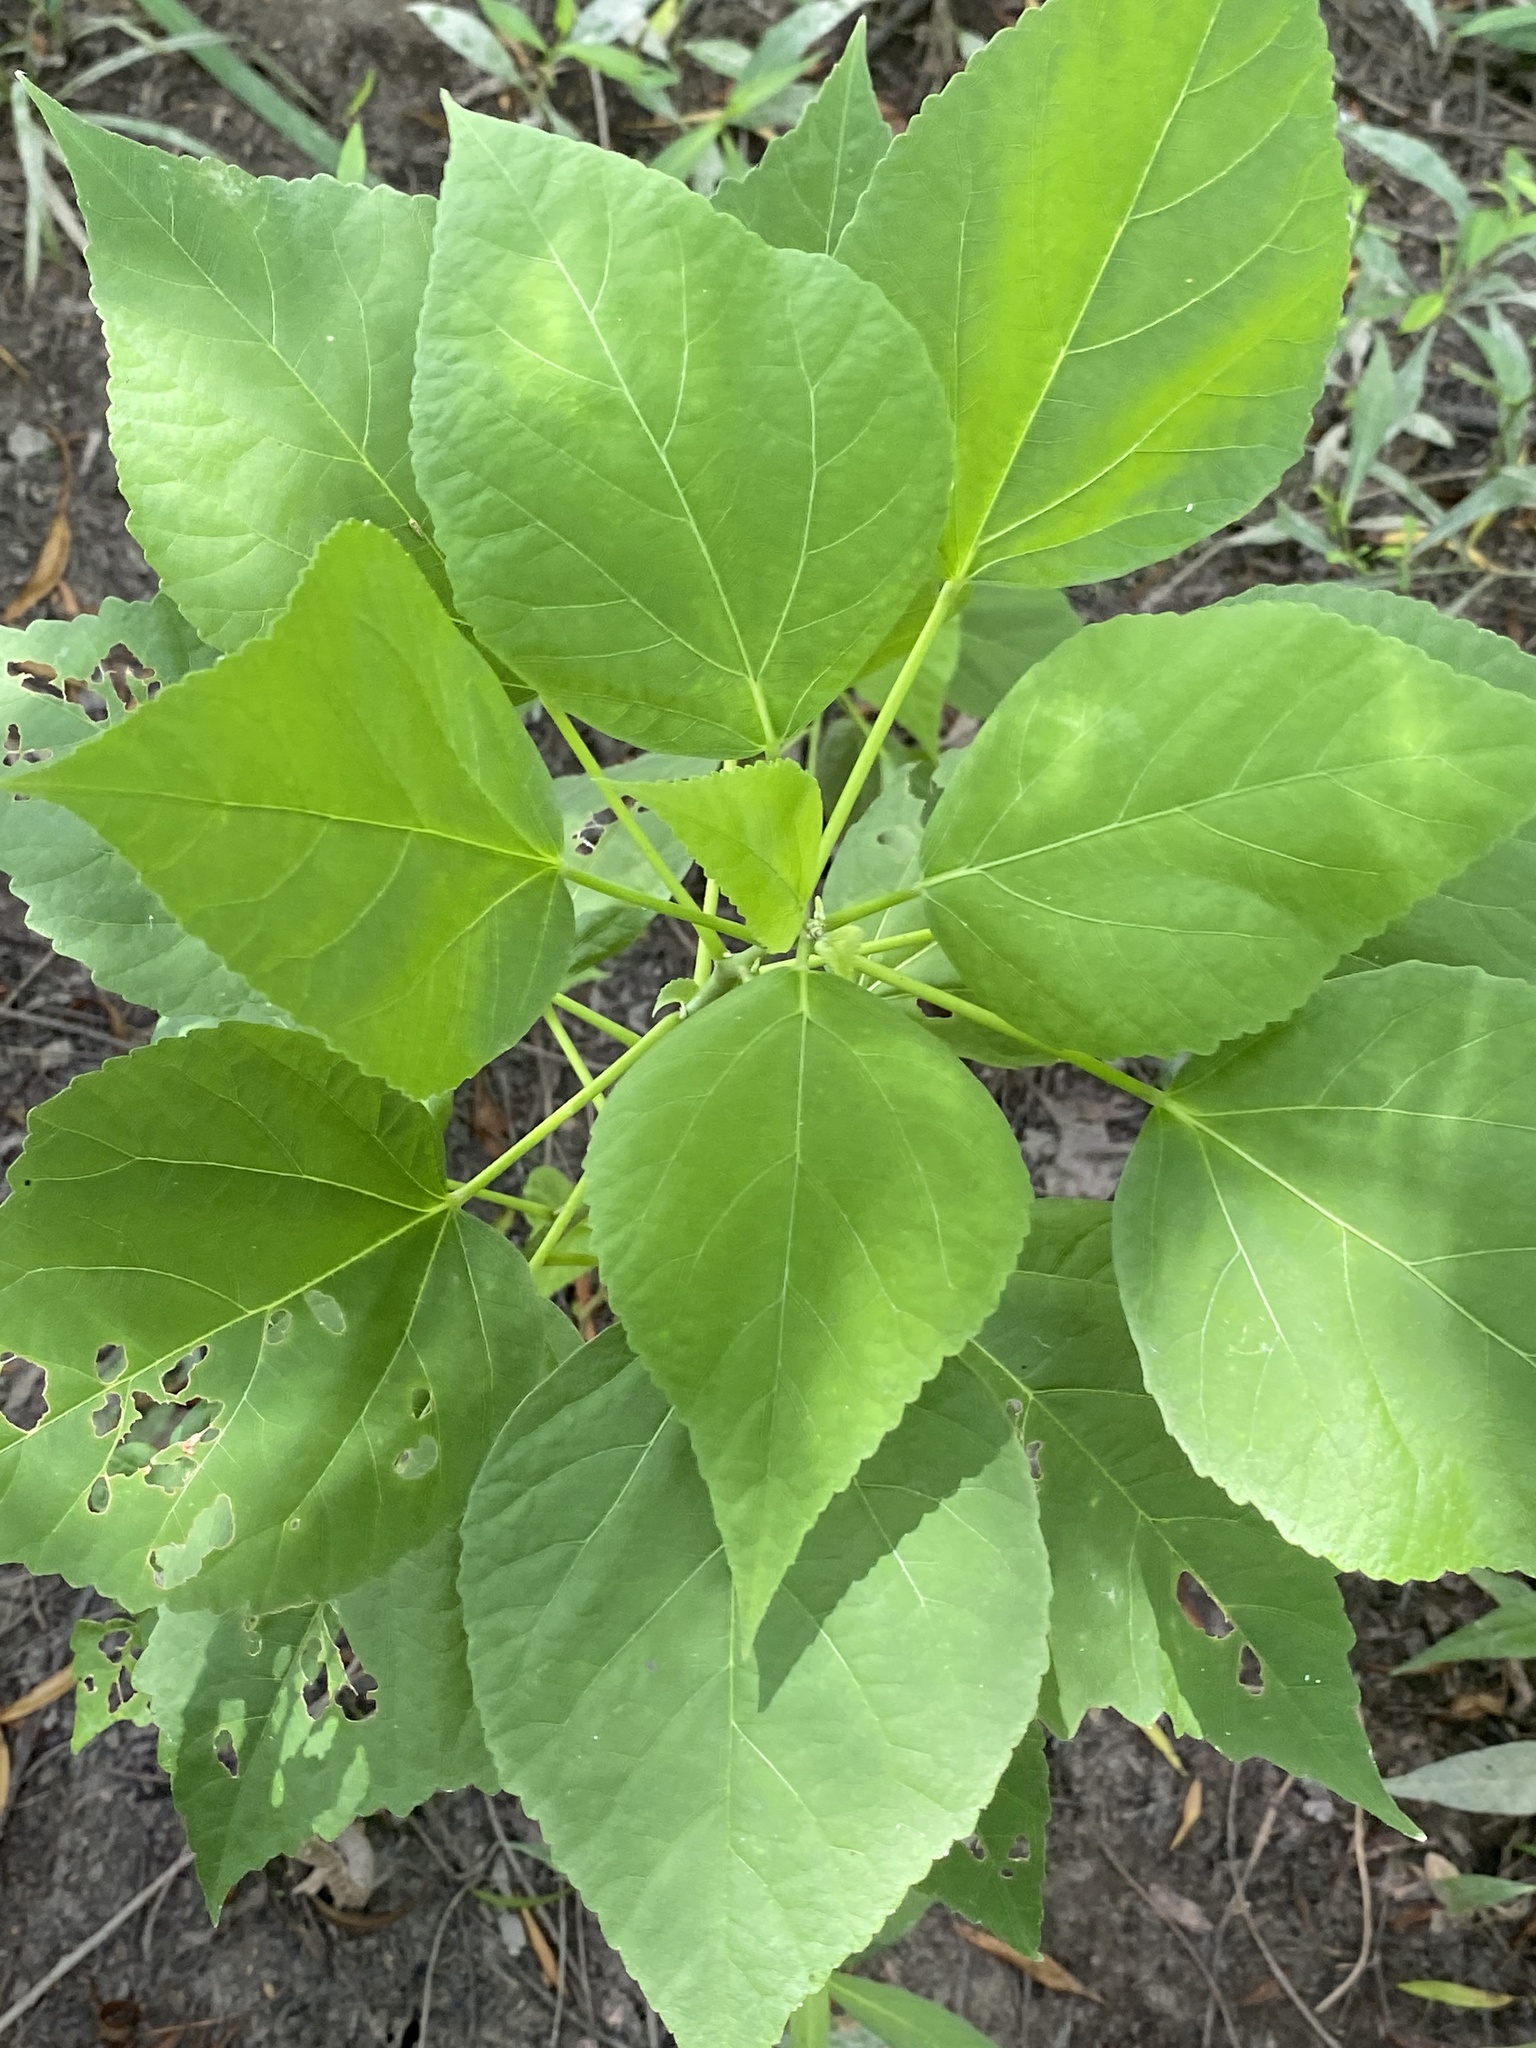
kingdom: Plantae
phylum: Tracheophyta
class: Magnoliopsida
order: Malvales
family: Malvaceae
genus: Hibiscus
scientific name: Hibiscus moscheutos
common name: Common rose-mallow
